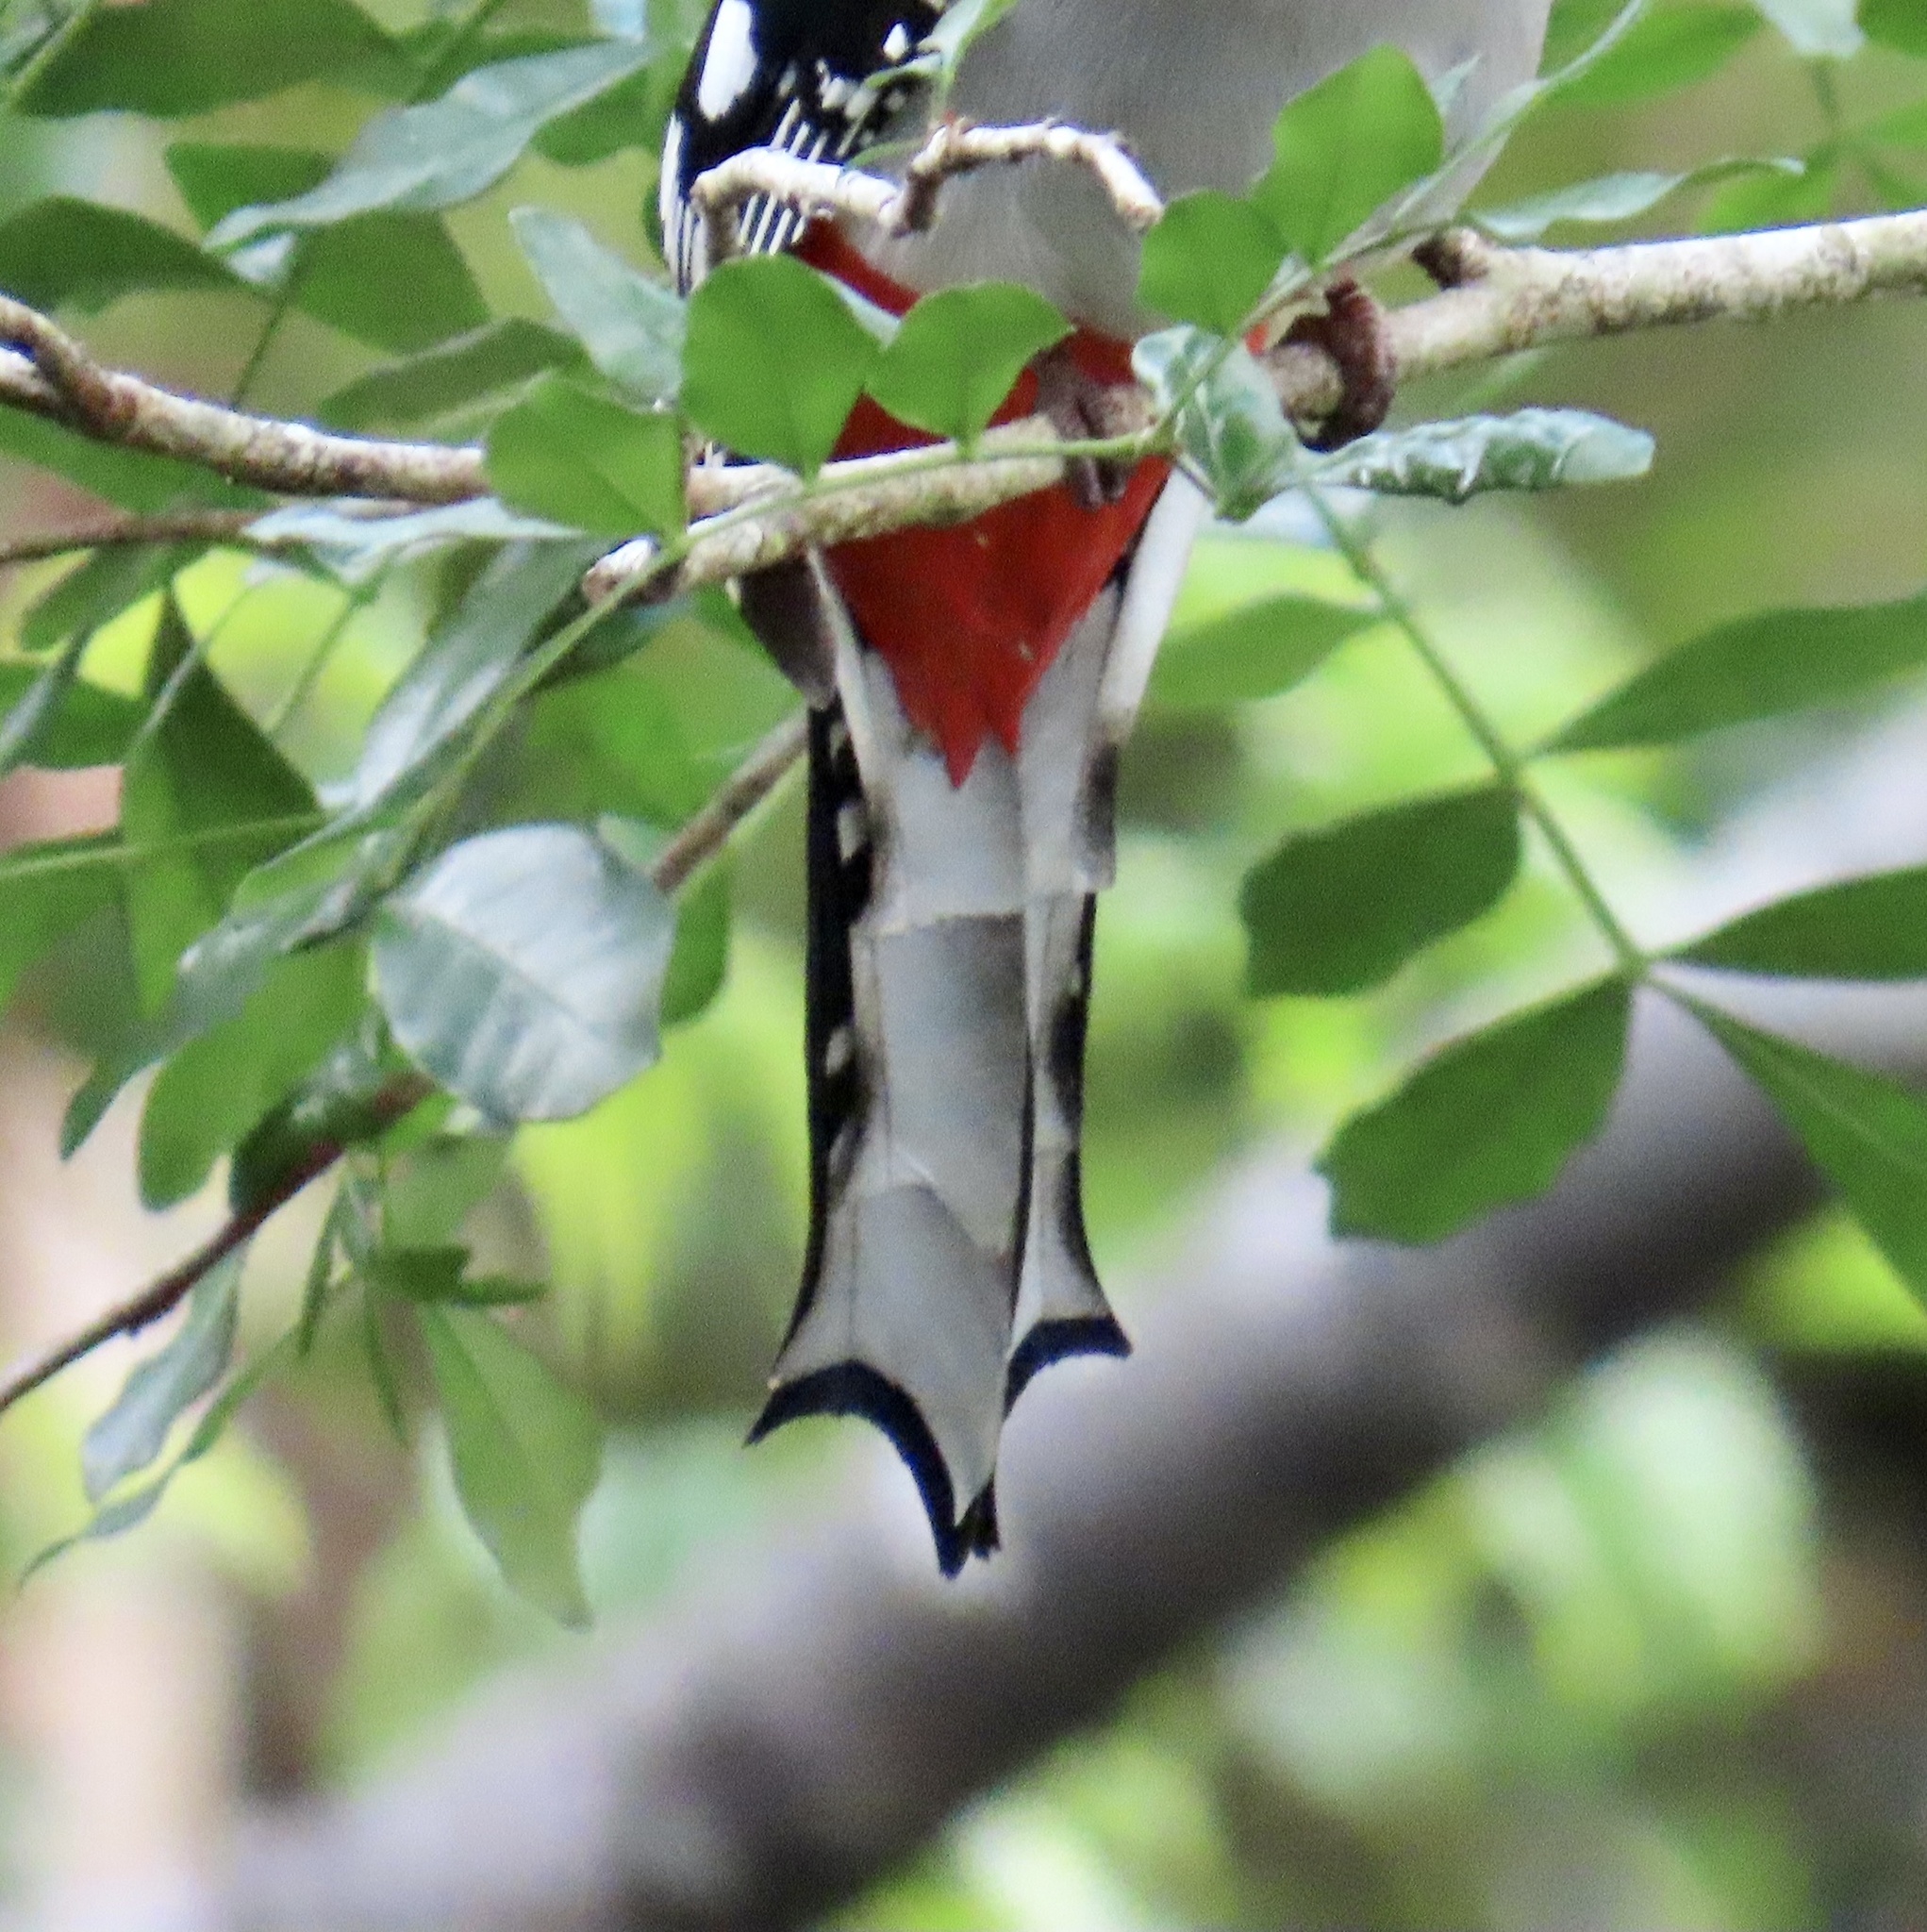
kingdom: Animalia
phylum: Chordata
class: Aves
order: Trogoniformes
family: Trogonidae
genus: Priotelus
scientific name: Priotelus temnurus
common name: Cuban trogon
